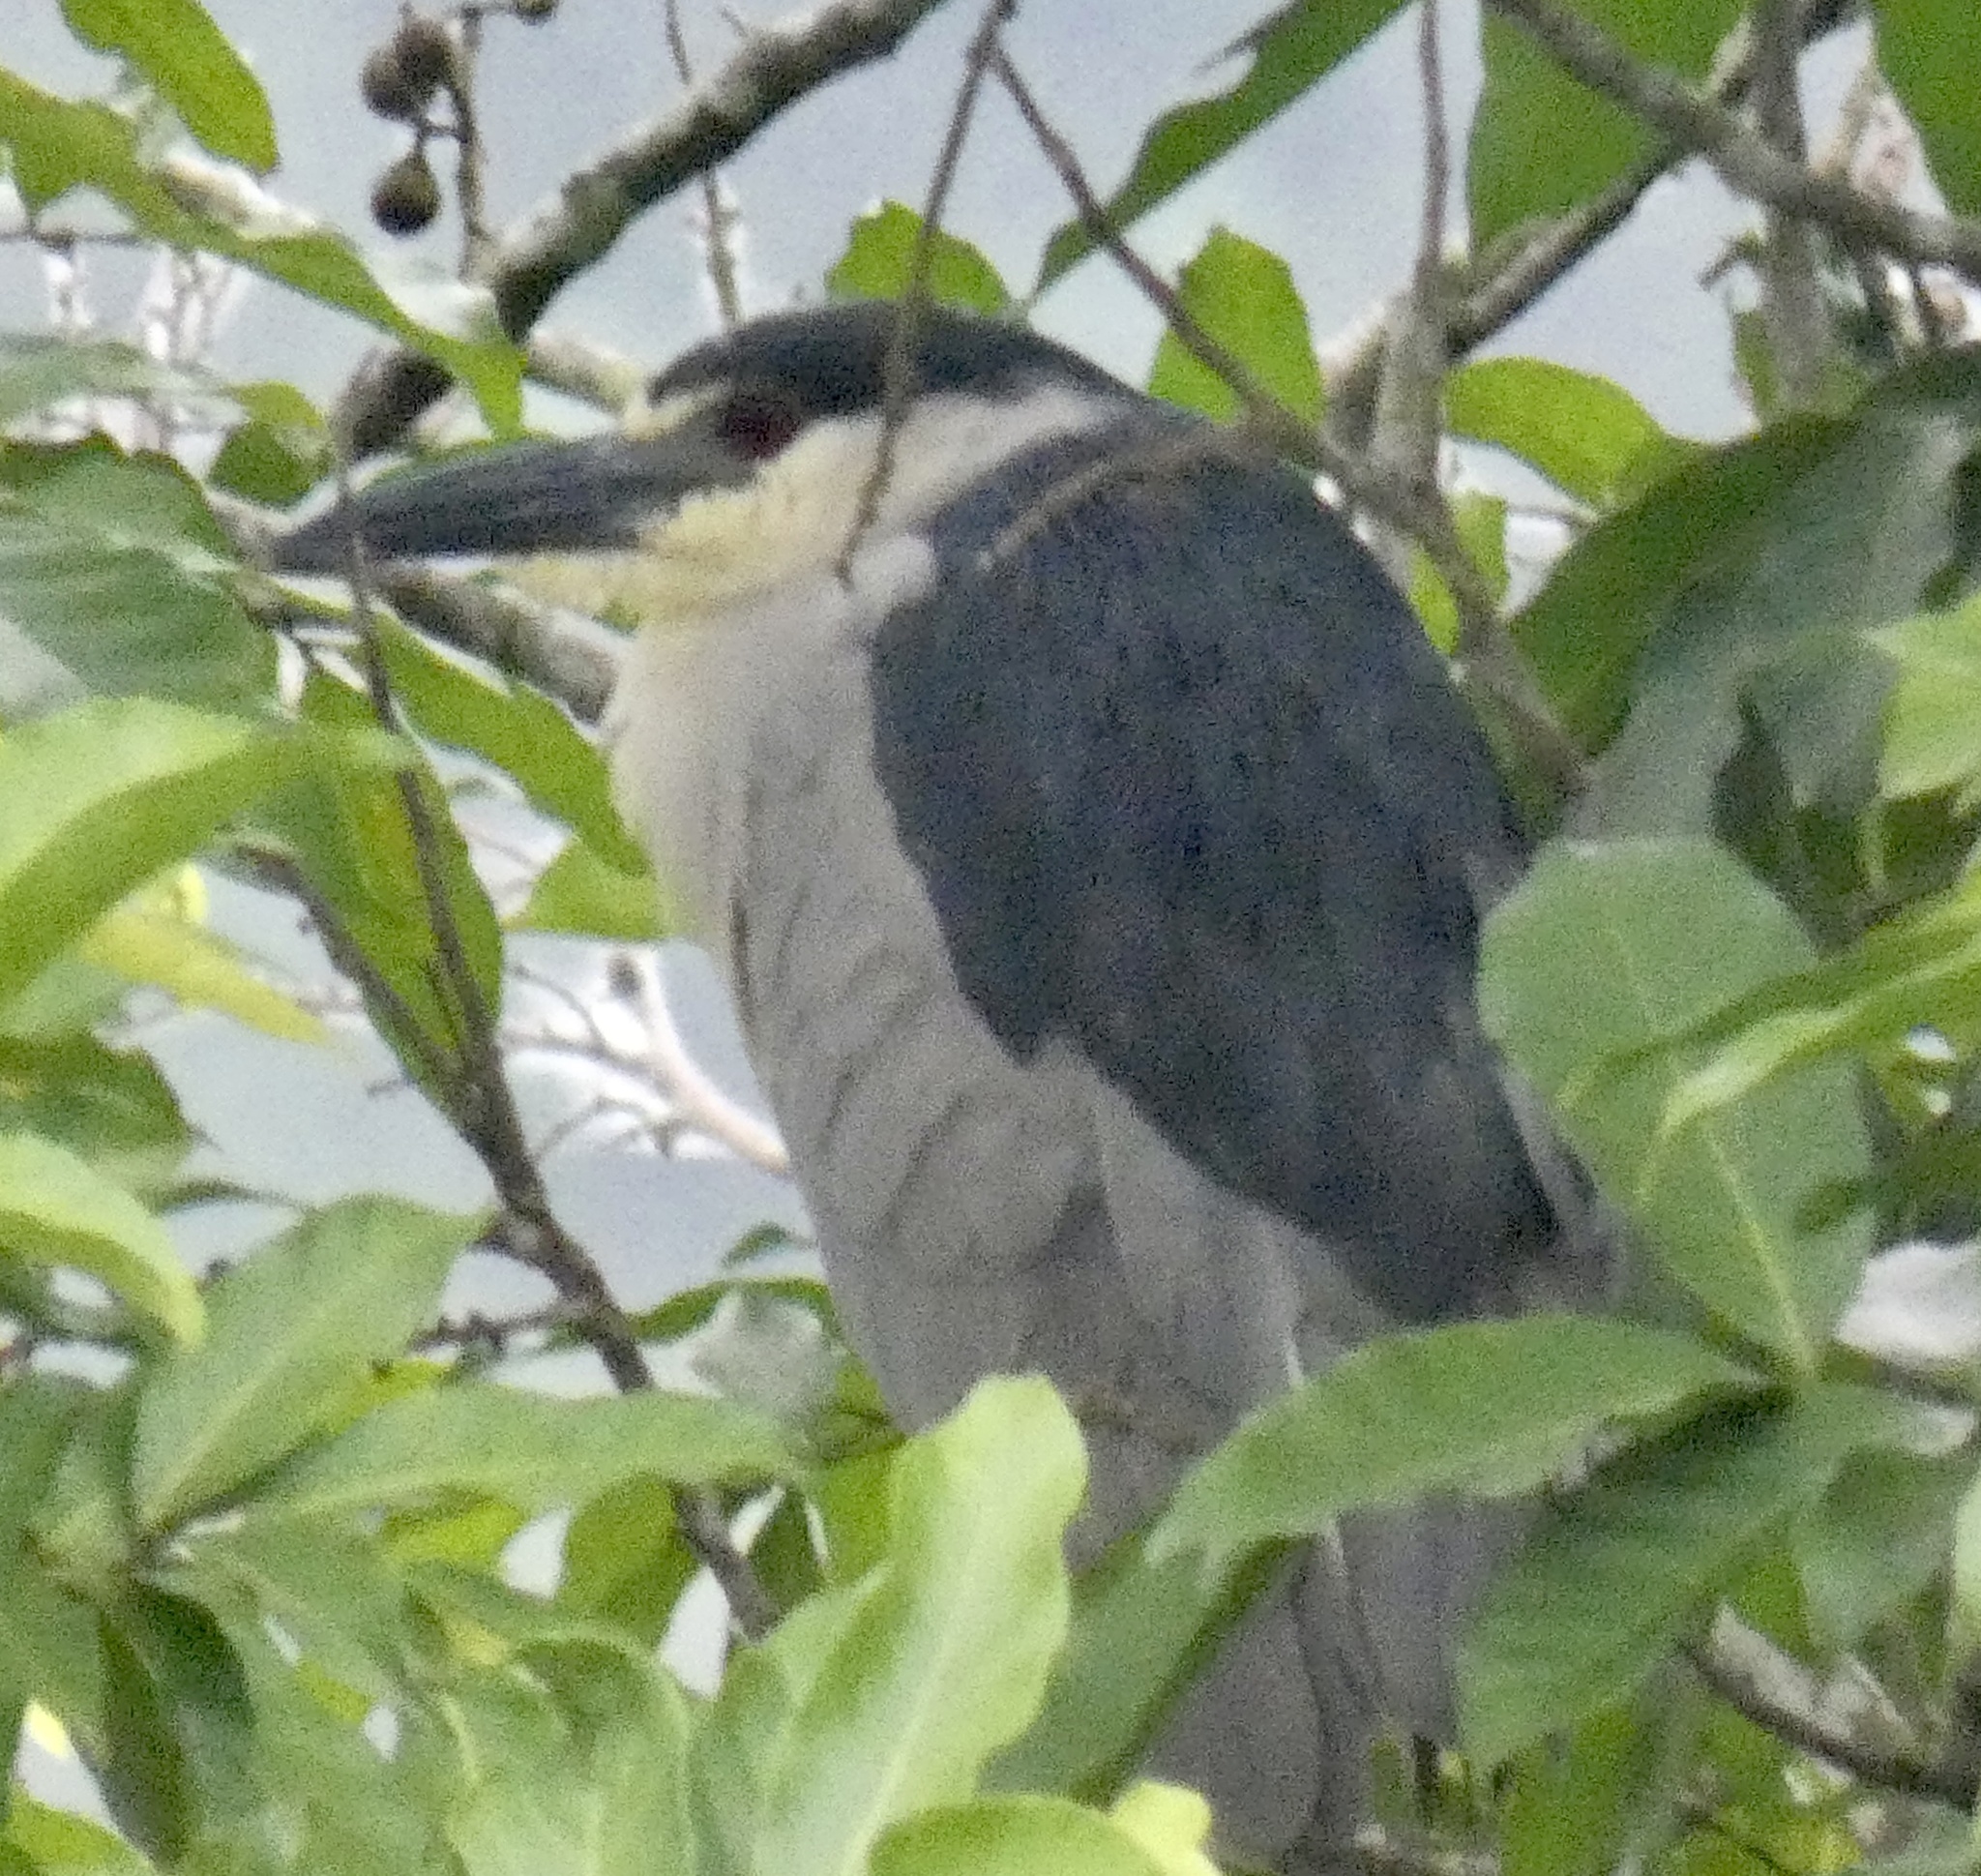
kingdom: Animalia
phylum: Chordata
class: Aves
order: Pelecaniformes
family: Ardeidae
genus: Nycticorax
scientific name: Nycticorax nycticorax
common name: Black-crowned night heron
